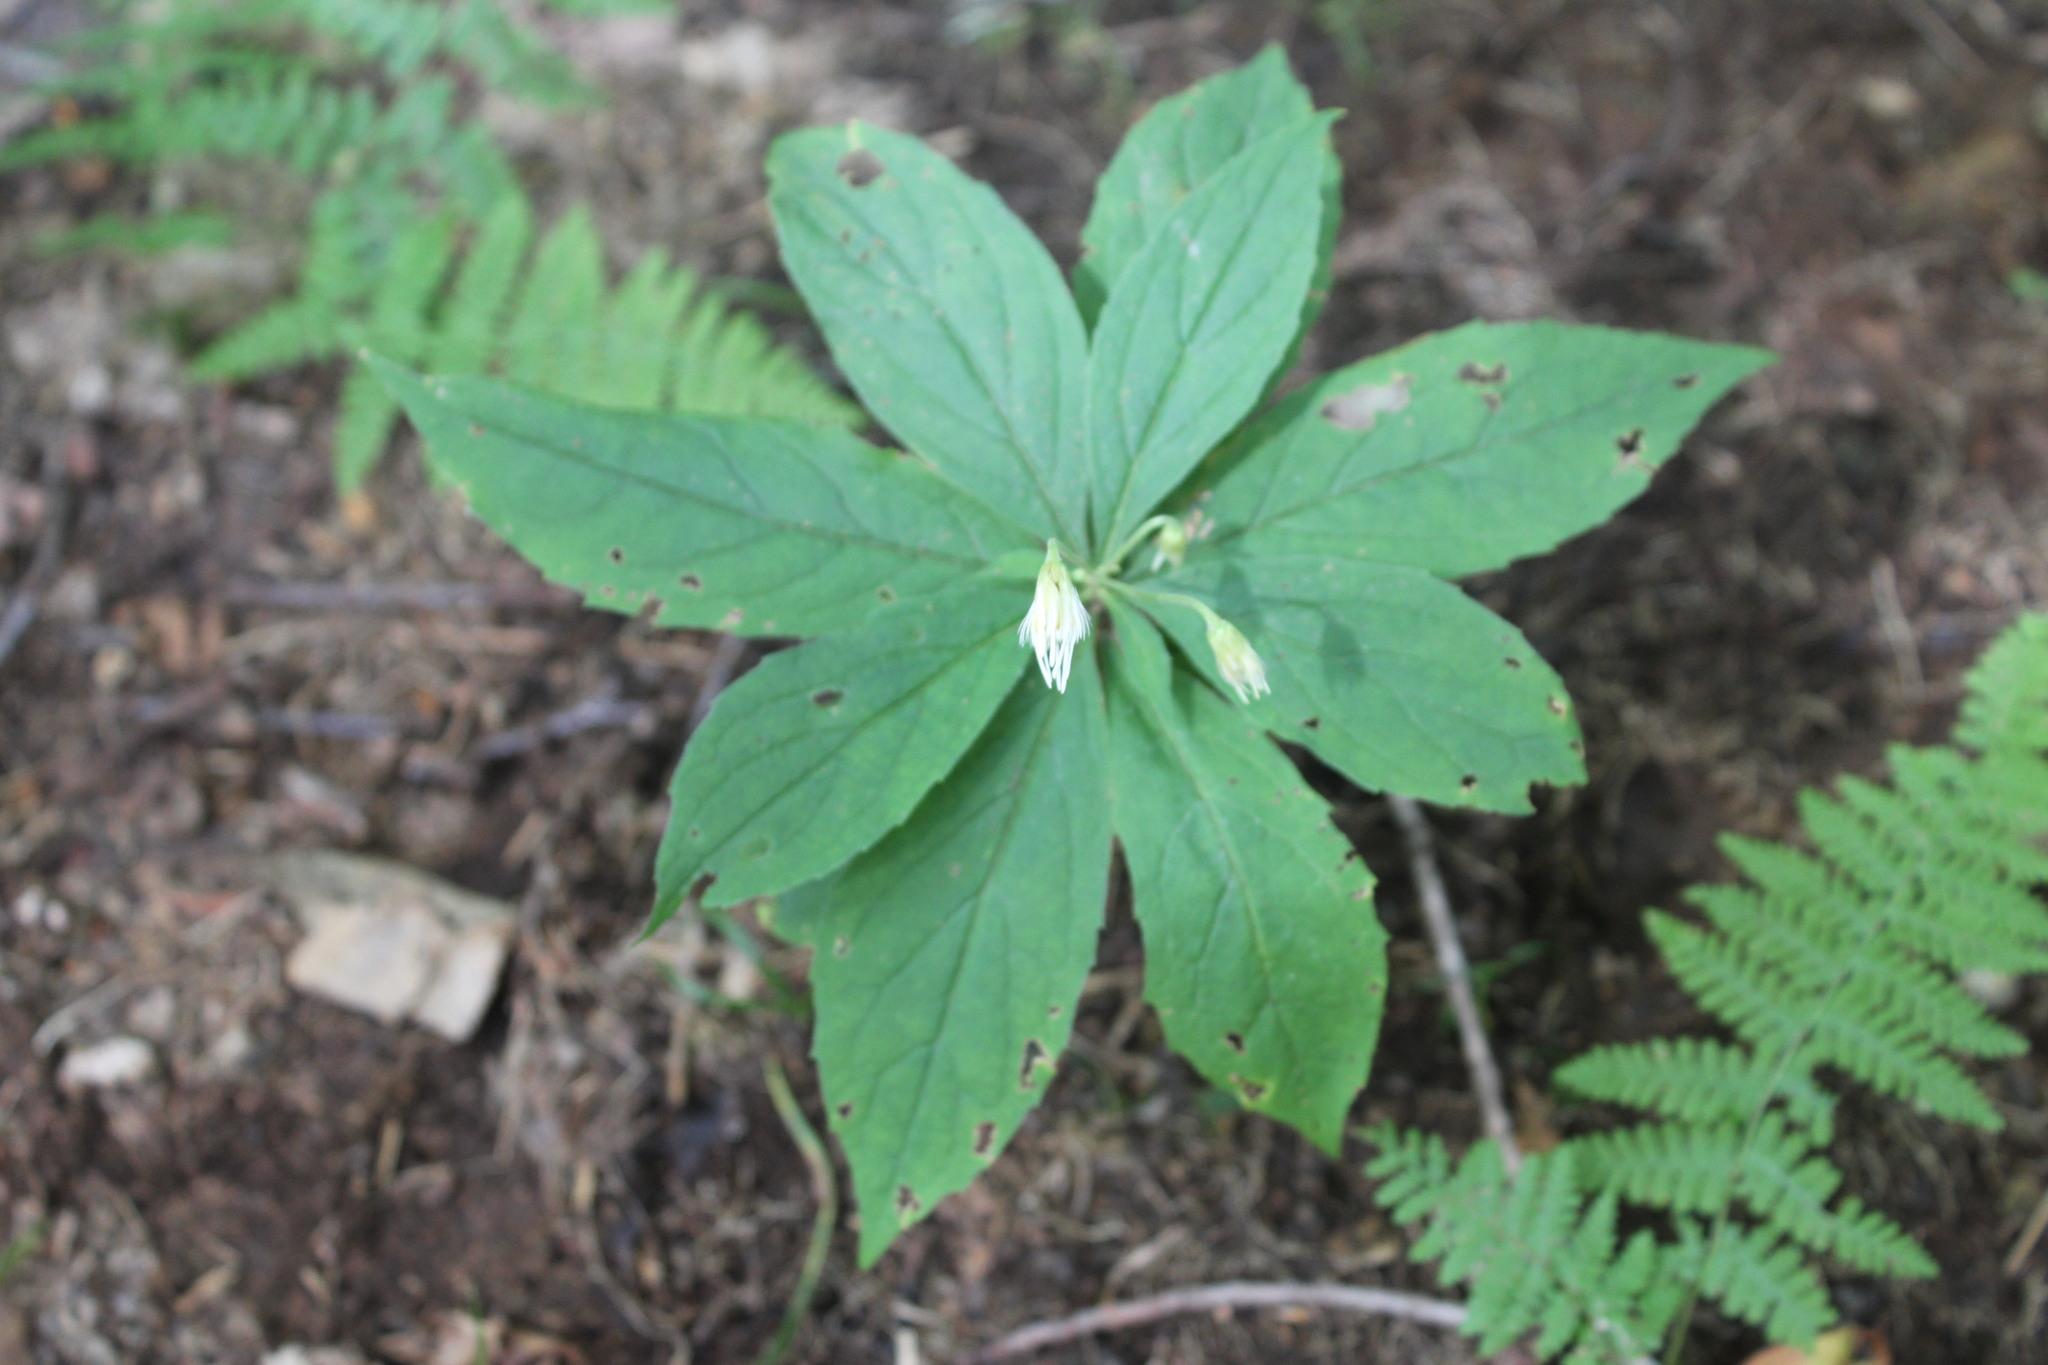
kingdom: Plantae
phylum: Tracheophyta
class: Magnoliopsida
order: Asterales
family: Asteraceae
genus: Oclemena
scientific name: Oclemena acuminata
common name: Mountain aster
